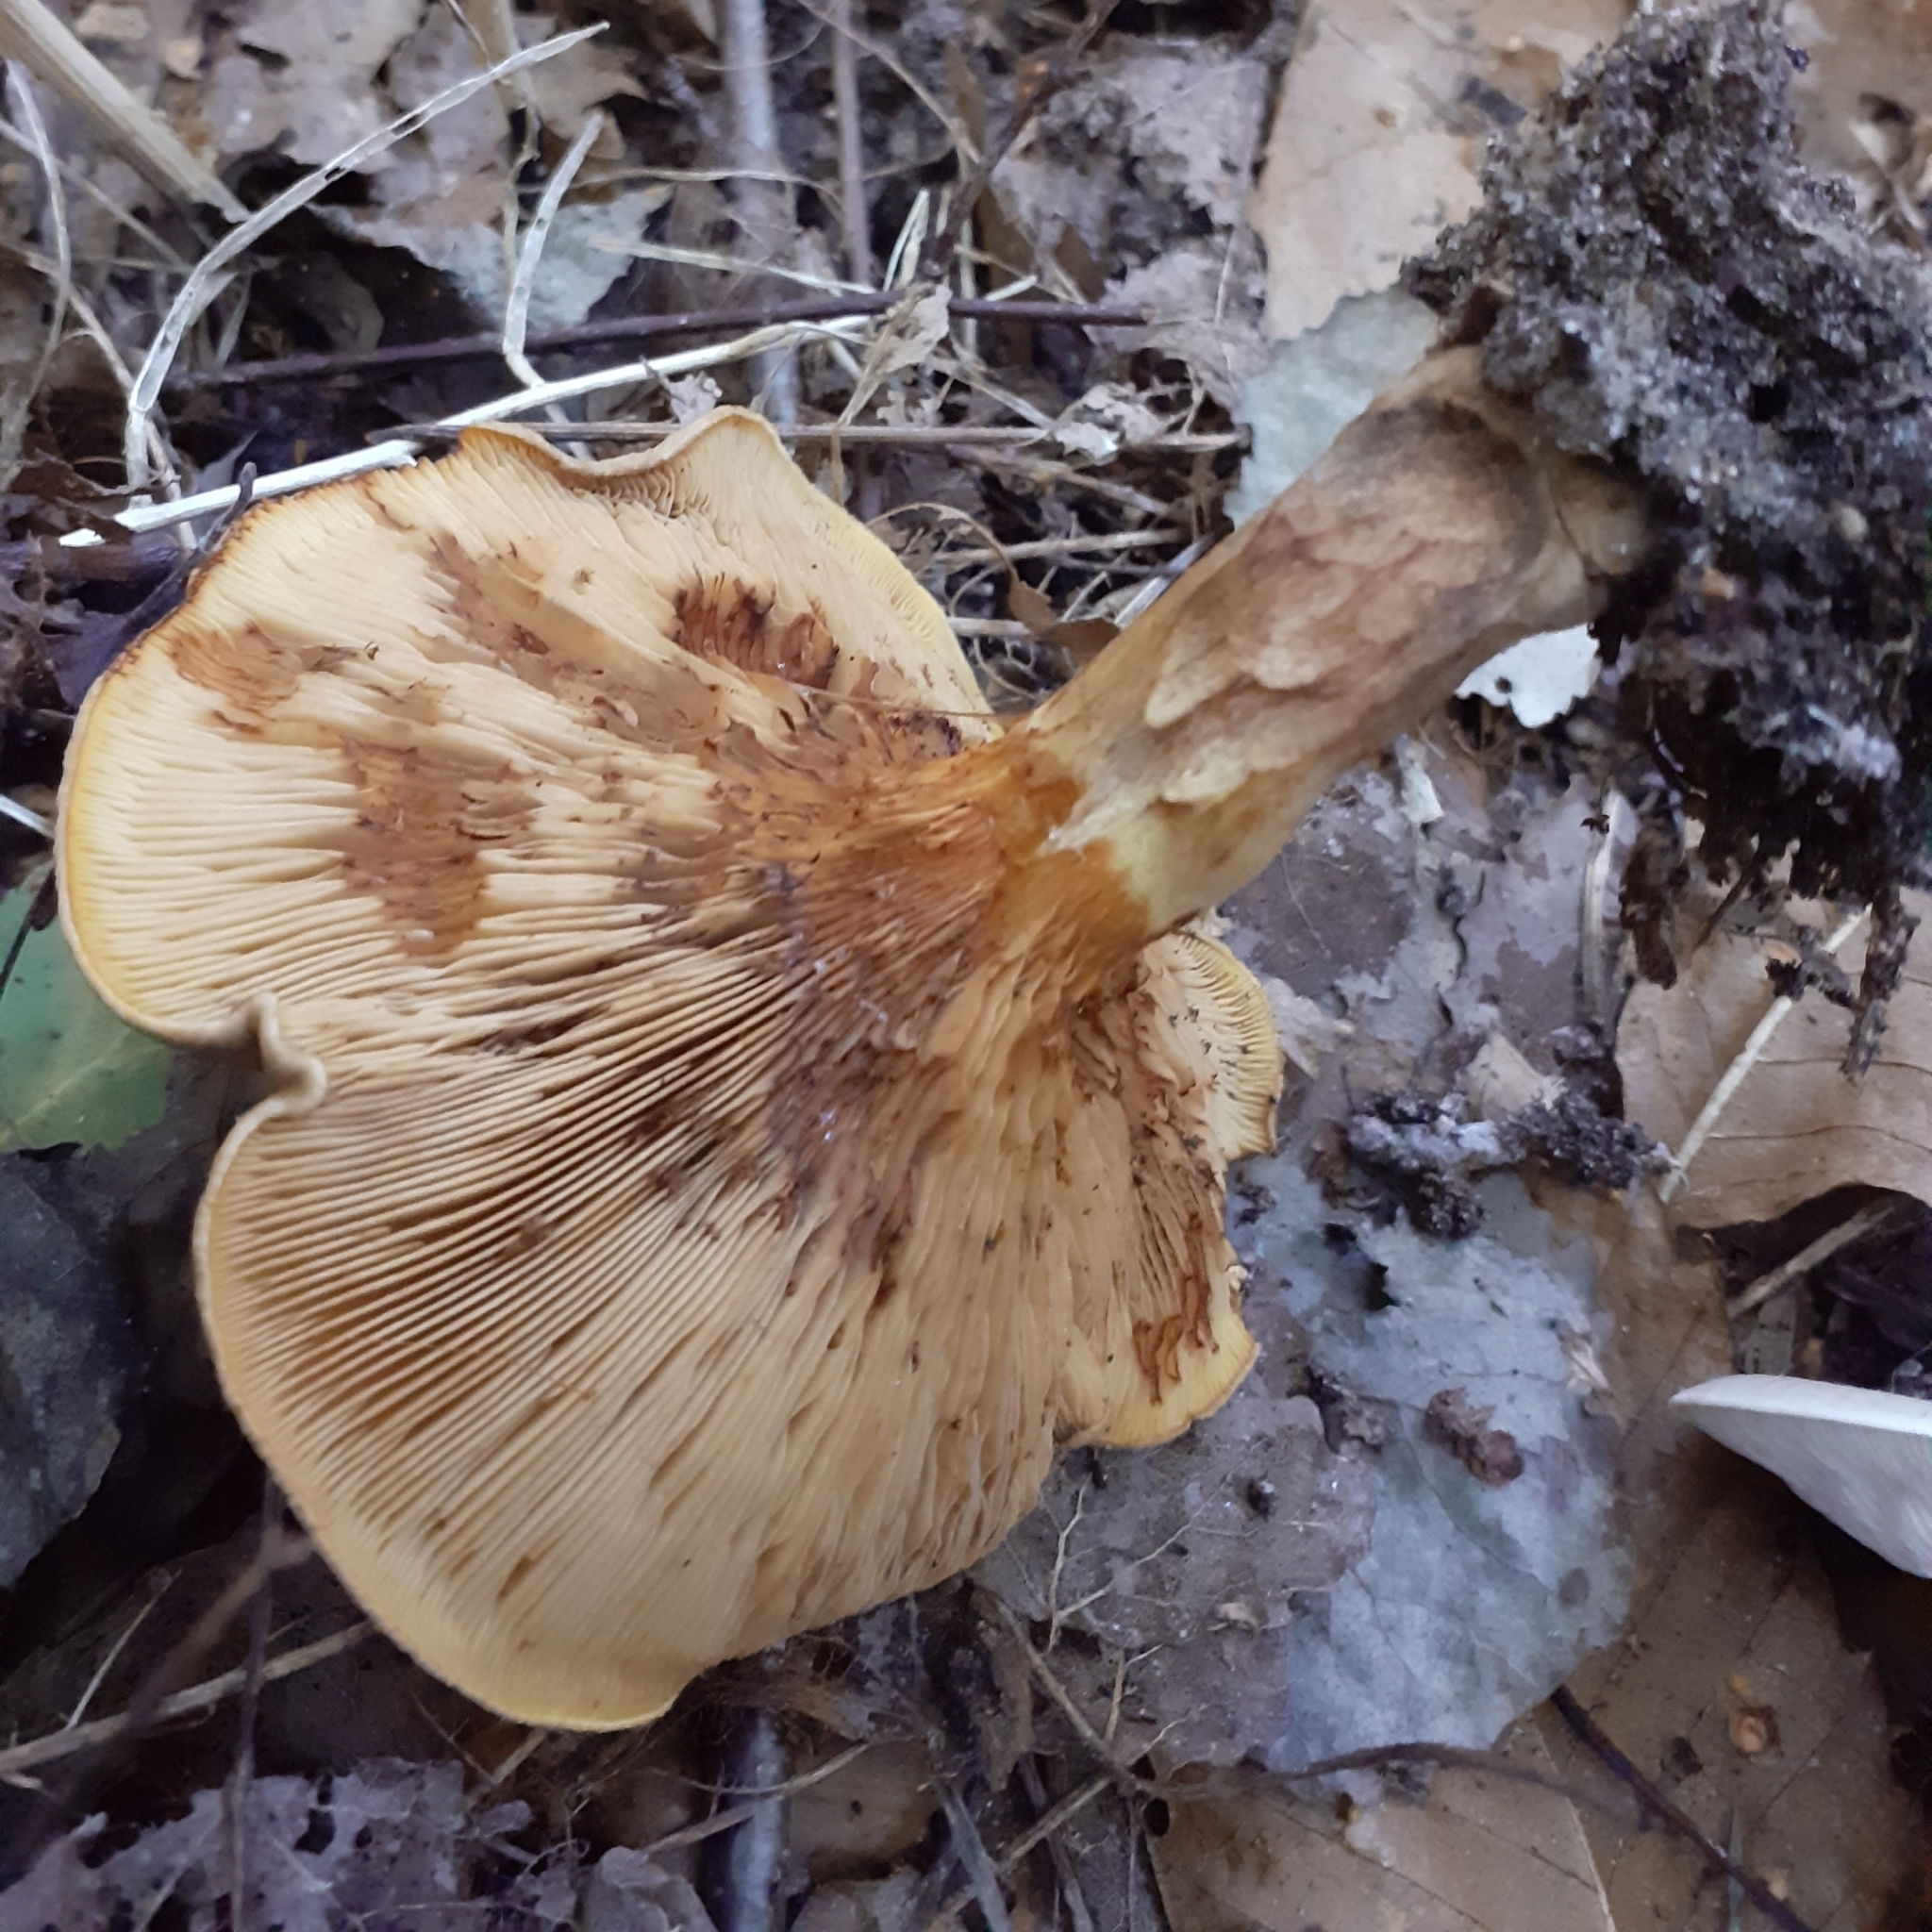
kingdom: Fungi
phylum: Basidiomycota
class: Agaricomycetes
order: Boletales
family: Paxillaceae
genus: Paxillus
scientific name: Paxillus involutus
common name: Brown roll rim
